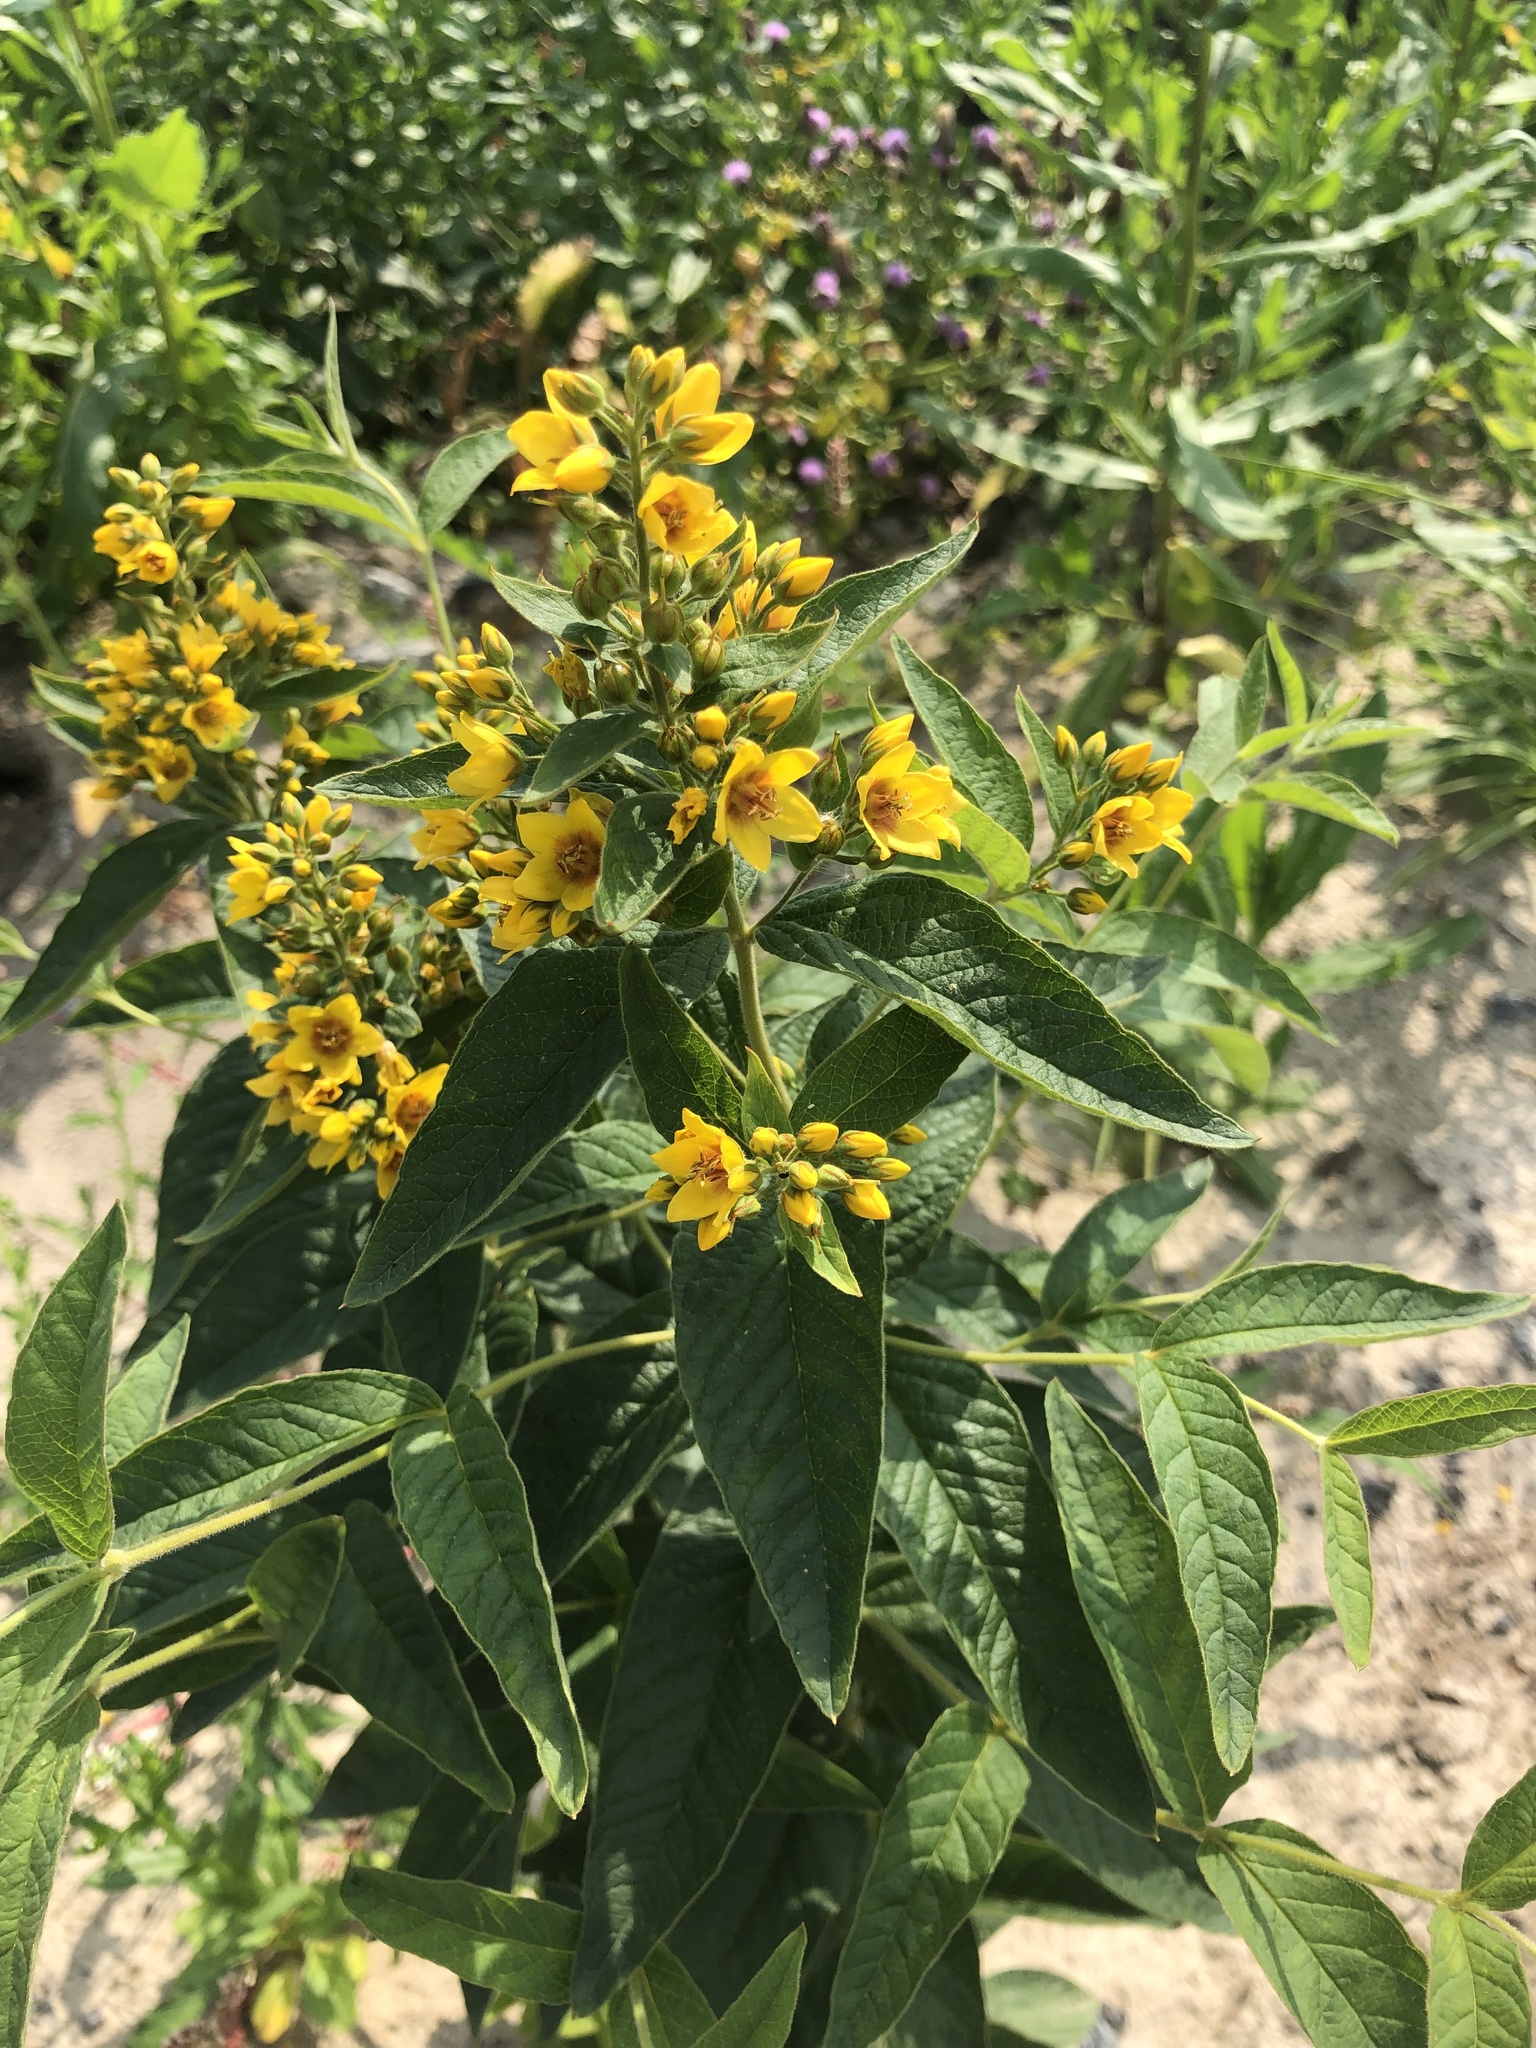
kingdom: Plantae
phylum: Tracheophyta
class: Magnoliopsida
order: Ericales
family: Primulaceae
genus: Lysimachia
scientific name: Lysimachia vulgaris
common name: Yellow loosestrife
